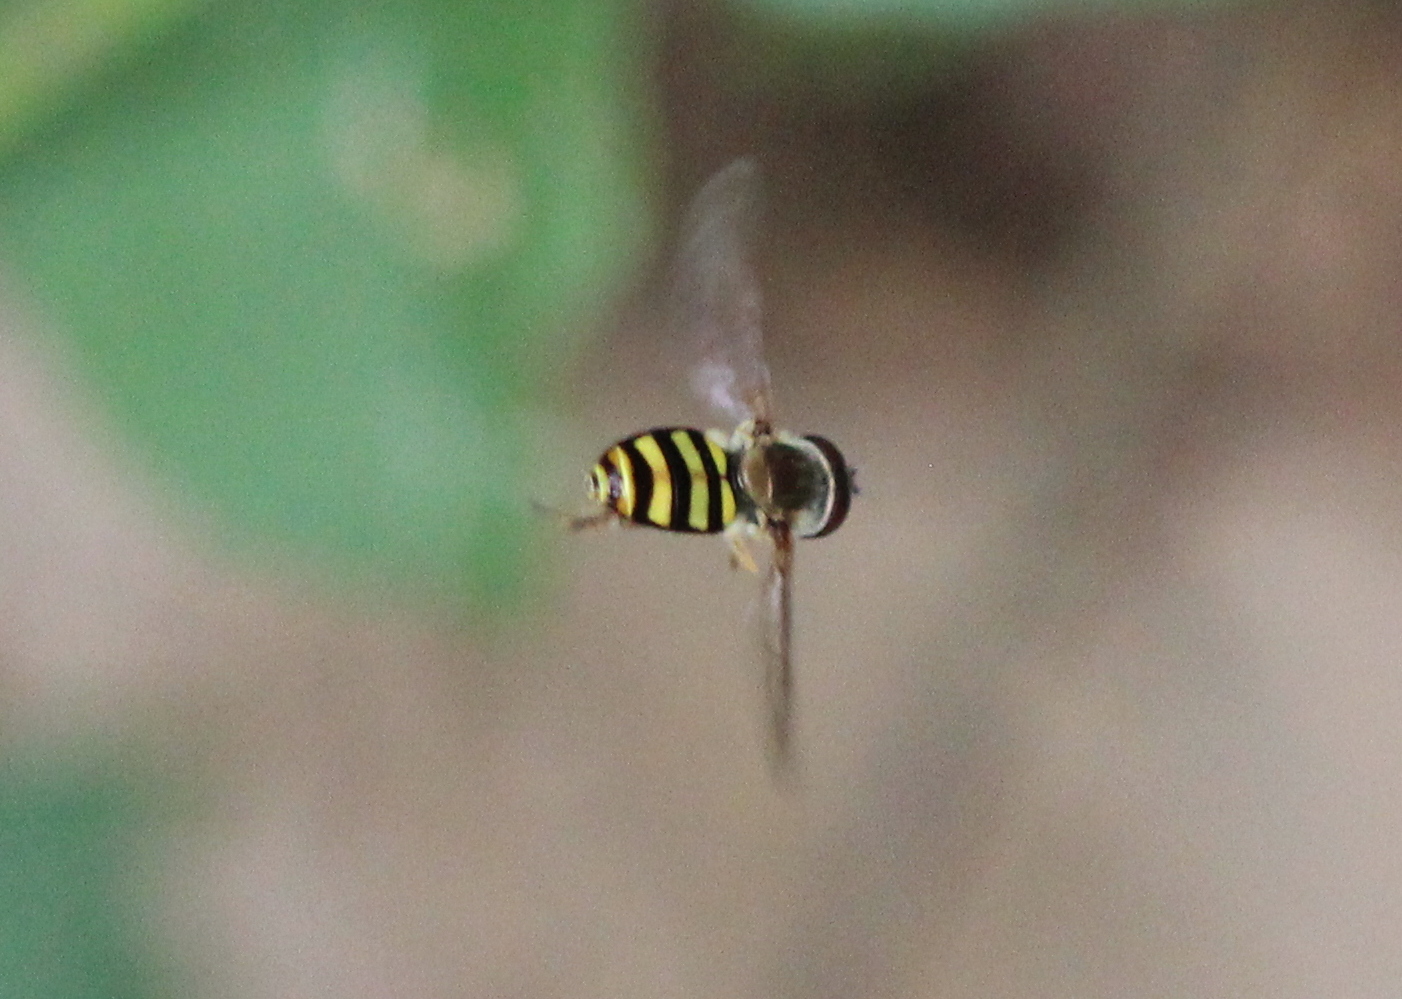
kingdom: Animalia
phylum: Arthropoda
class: Insecta
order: Diptera
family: Syrphidae
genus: Eupeodes
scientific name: Eupeodes
